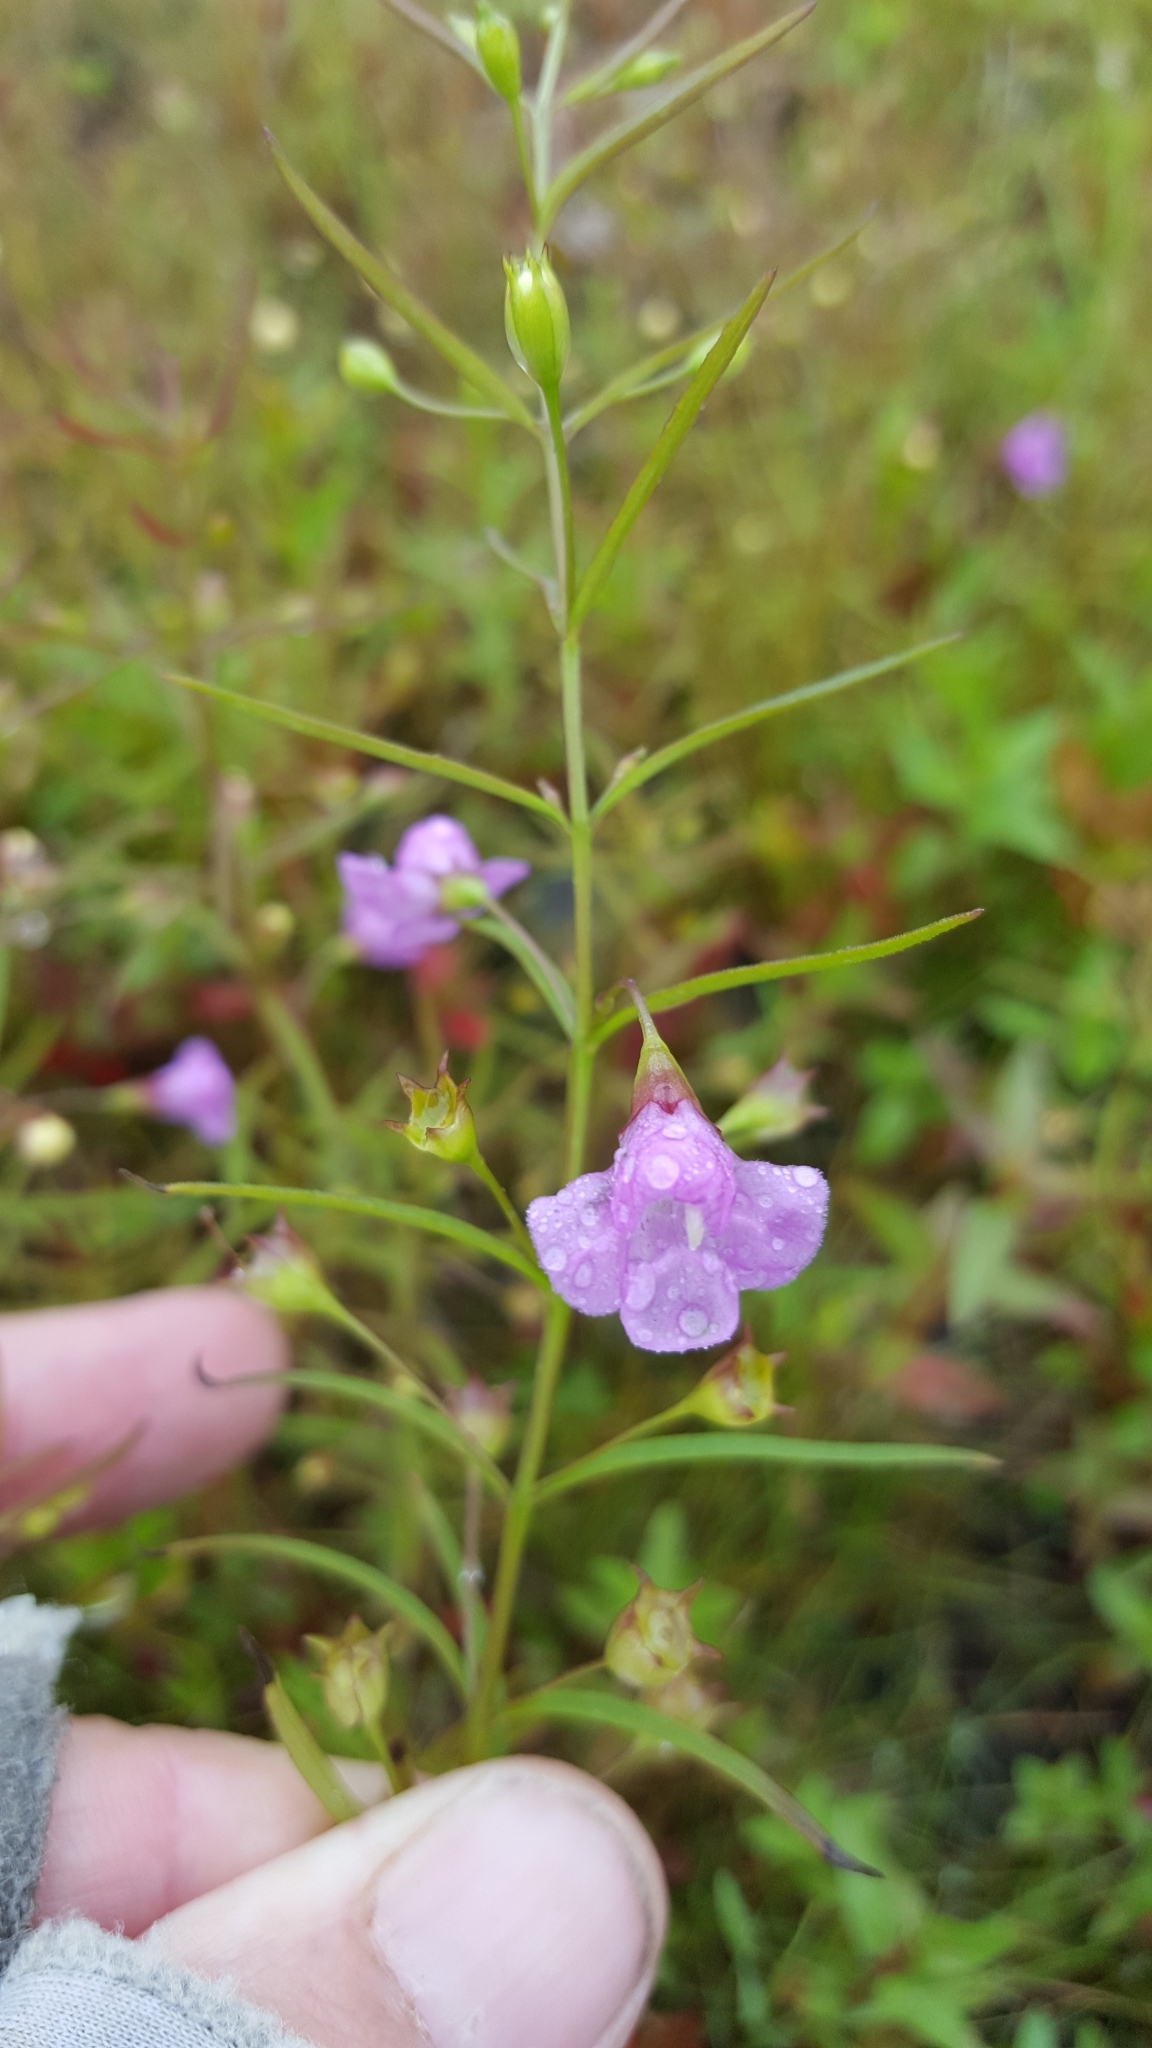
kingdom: Plantae
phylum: Tracheophyta
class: Magnoliopsida
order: Lamiales
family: Orobanchaceae
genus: Agalinis
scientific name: Agalinis tenuifolia
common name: Slender agalinis
